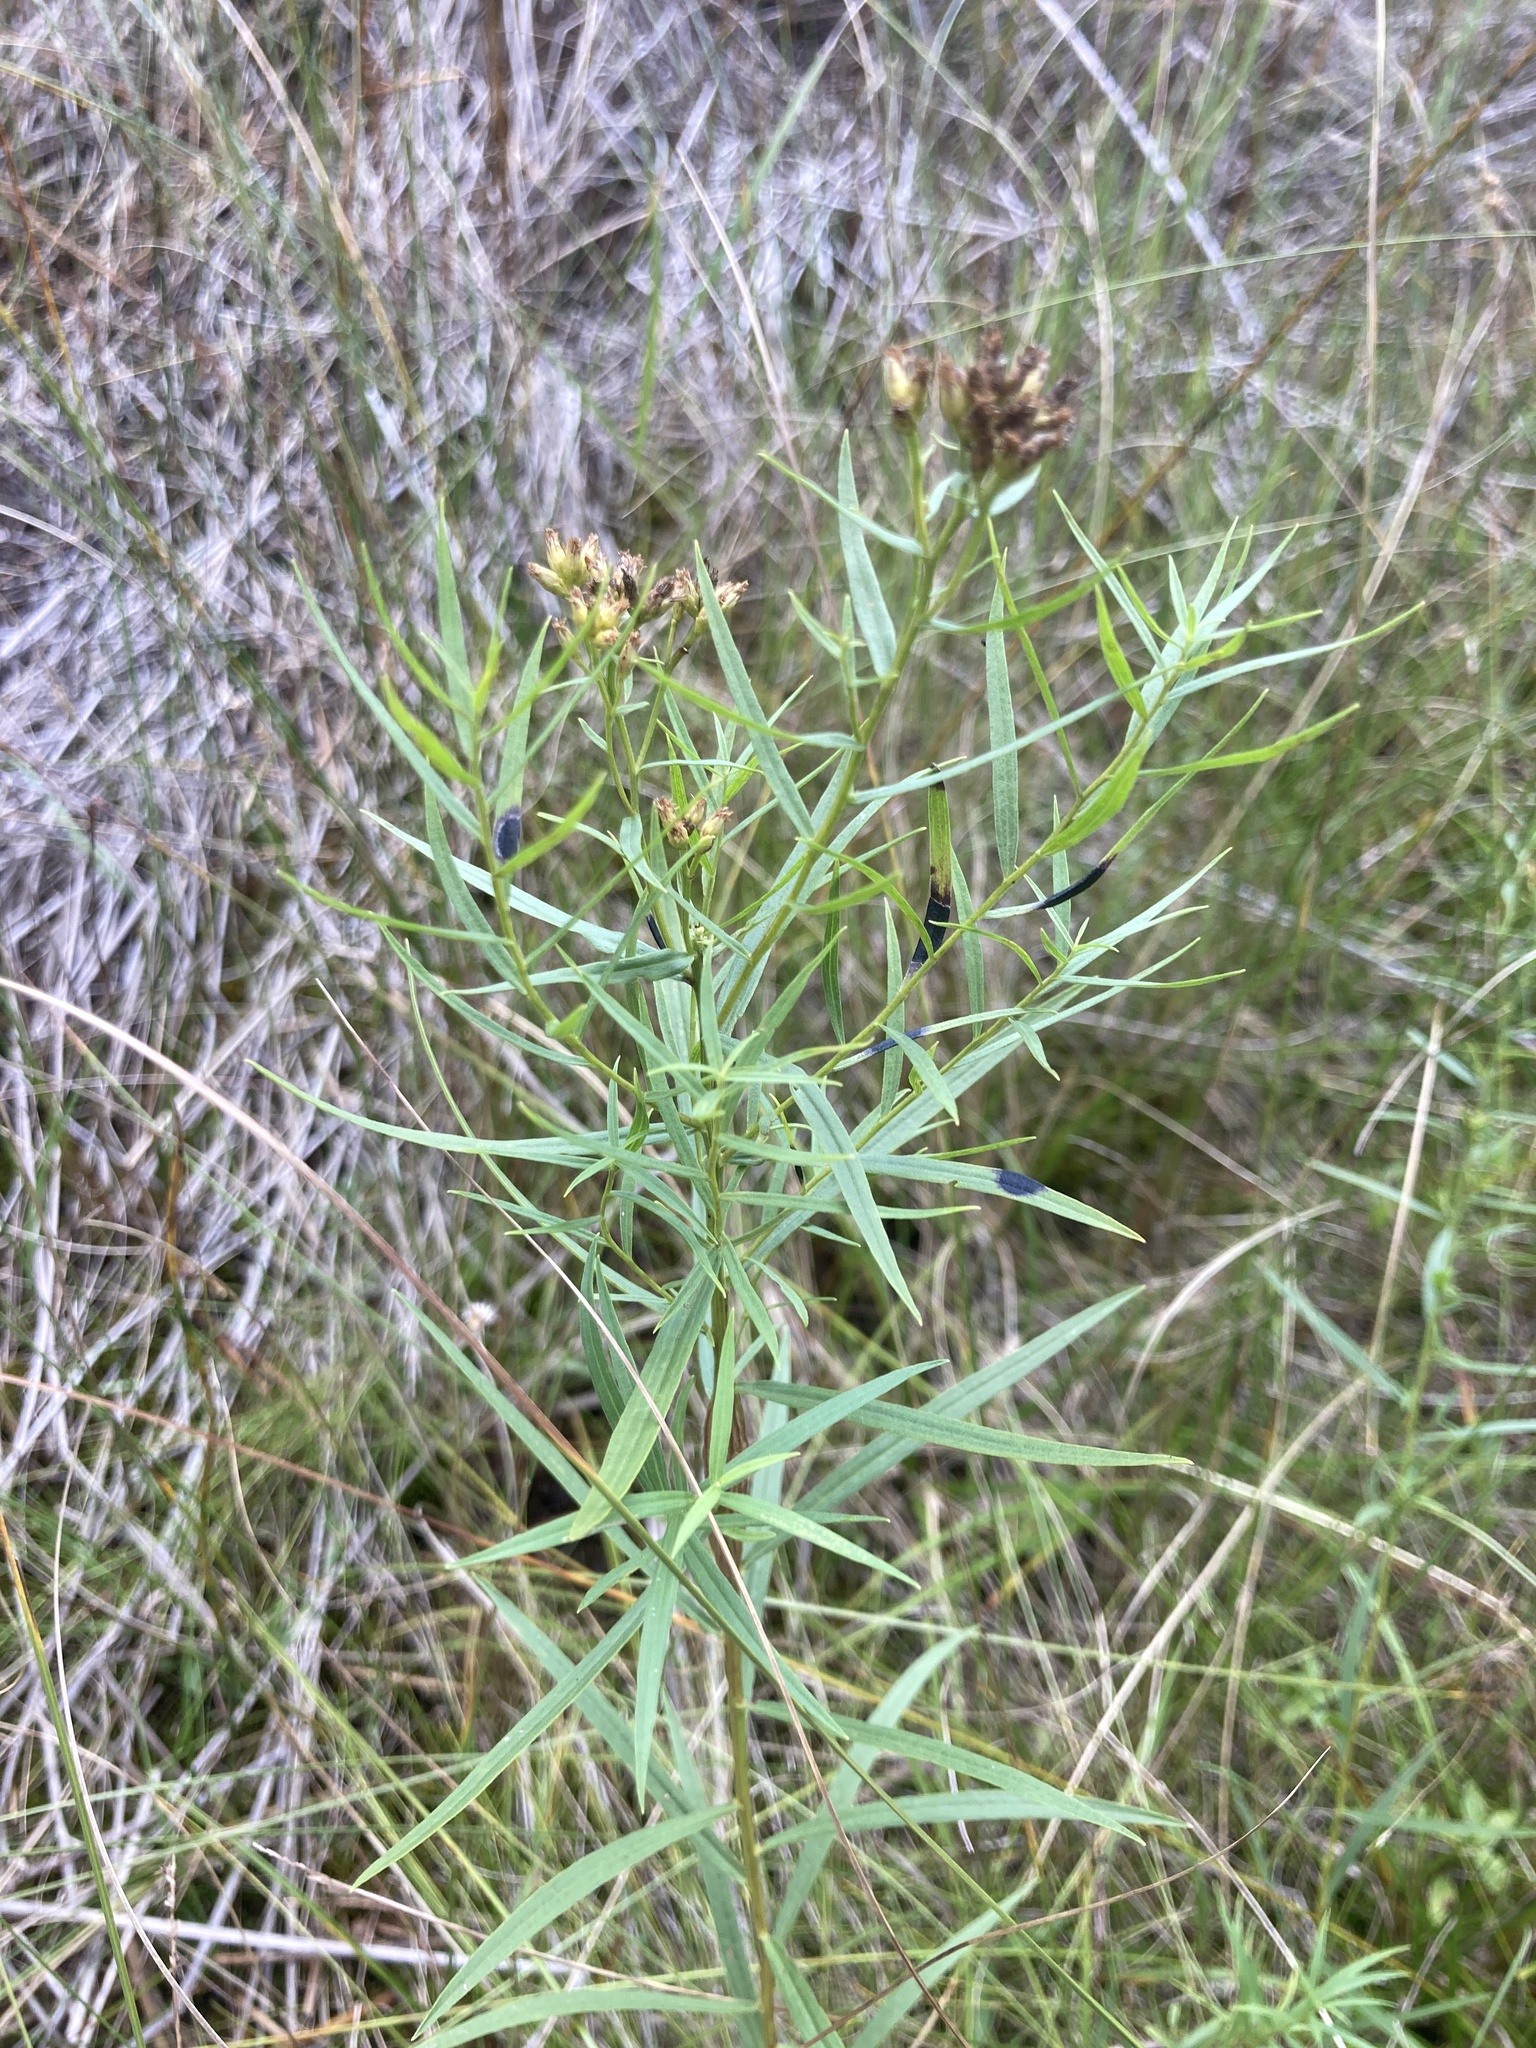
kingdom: Plantae
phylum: Tracheophyta
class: Magnoliopsida
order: Asterales
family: Asteraceae
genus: Euthamia
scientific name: Euthamia graminifolia
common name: Common goldentop
